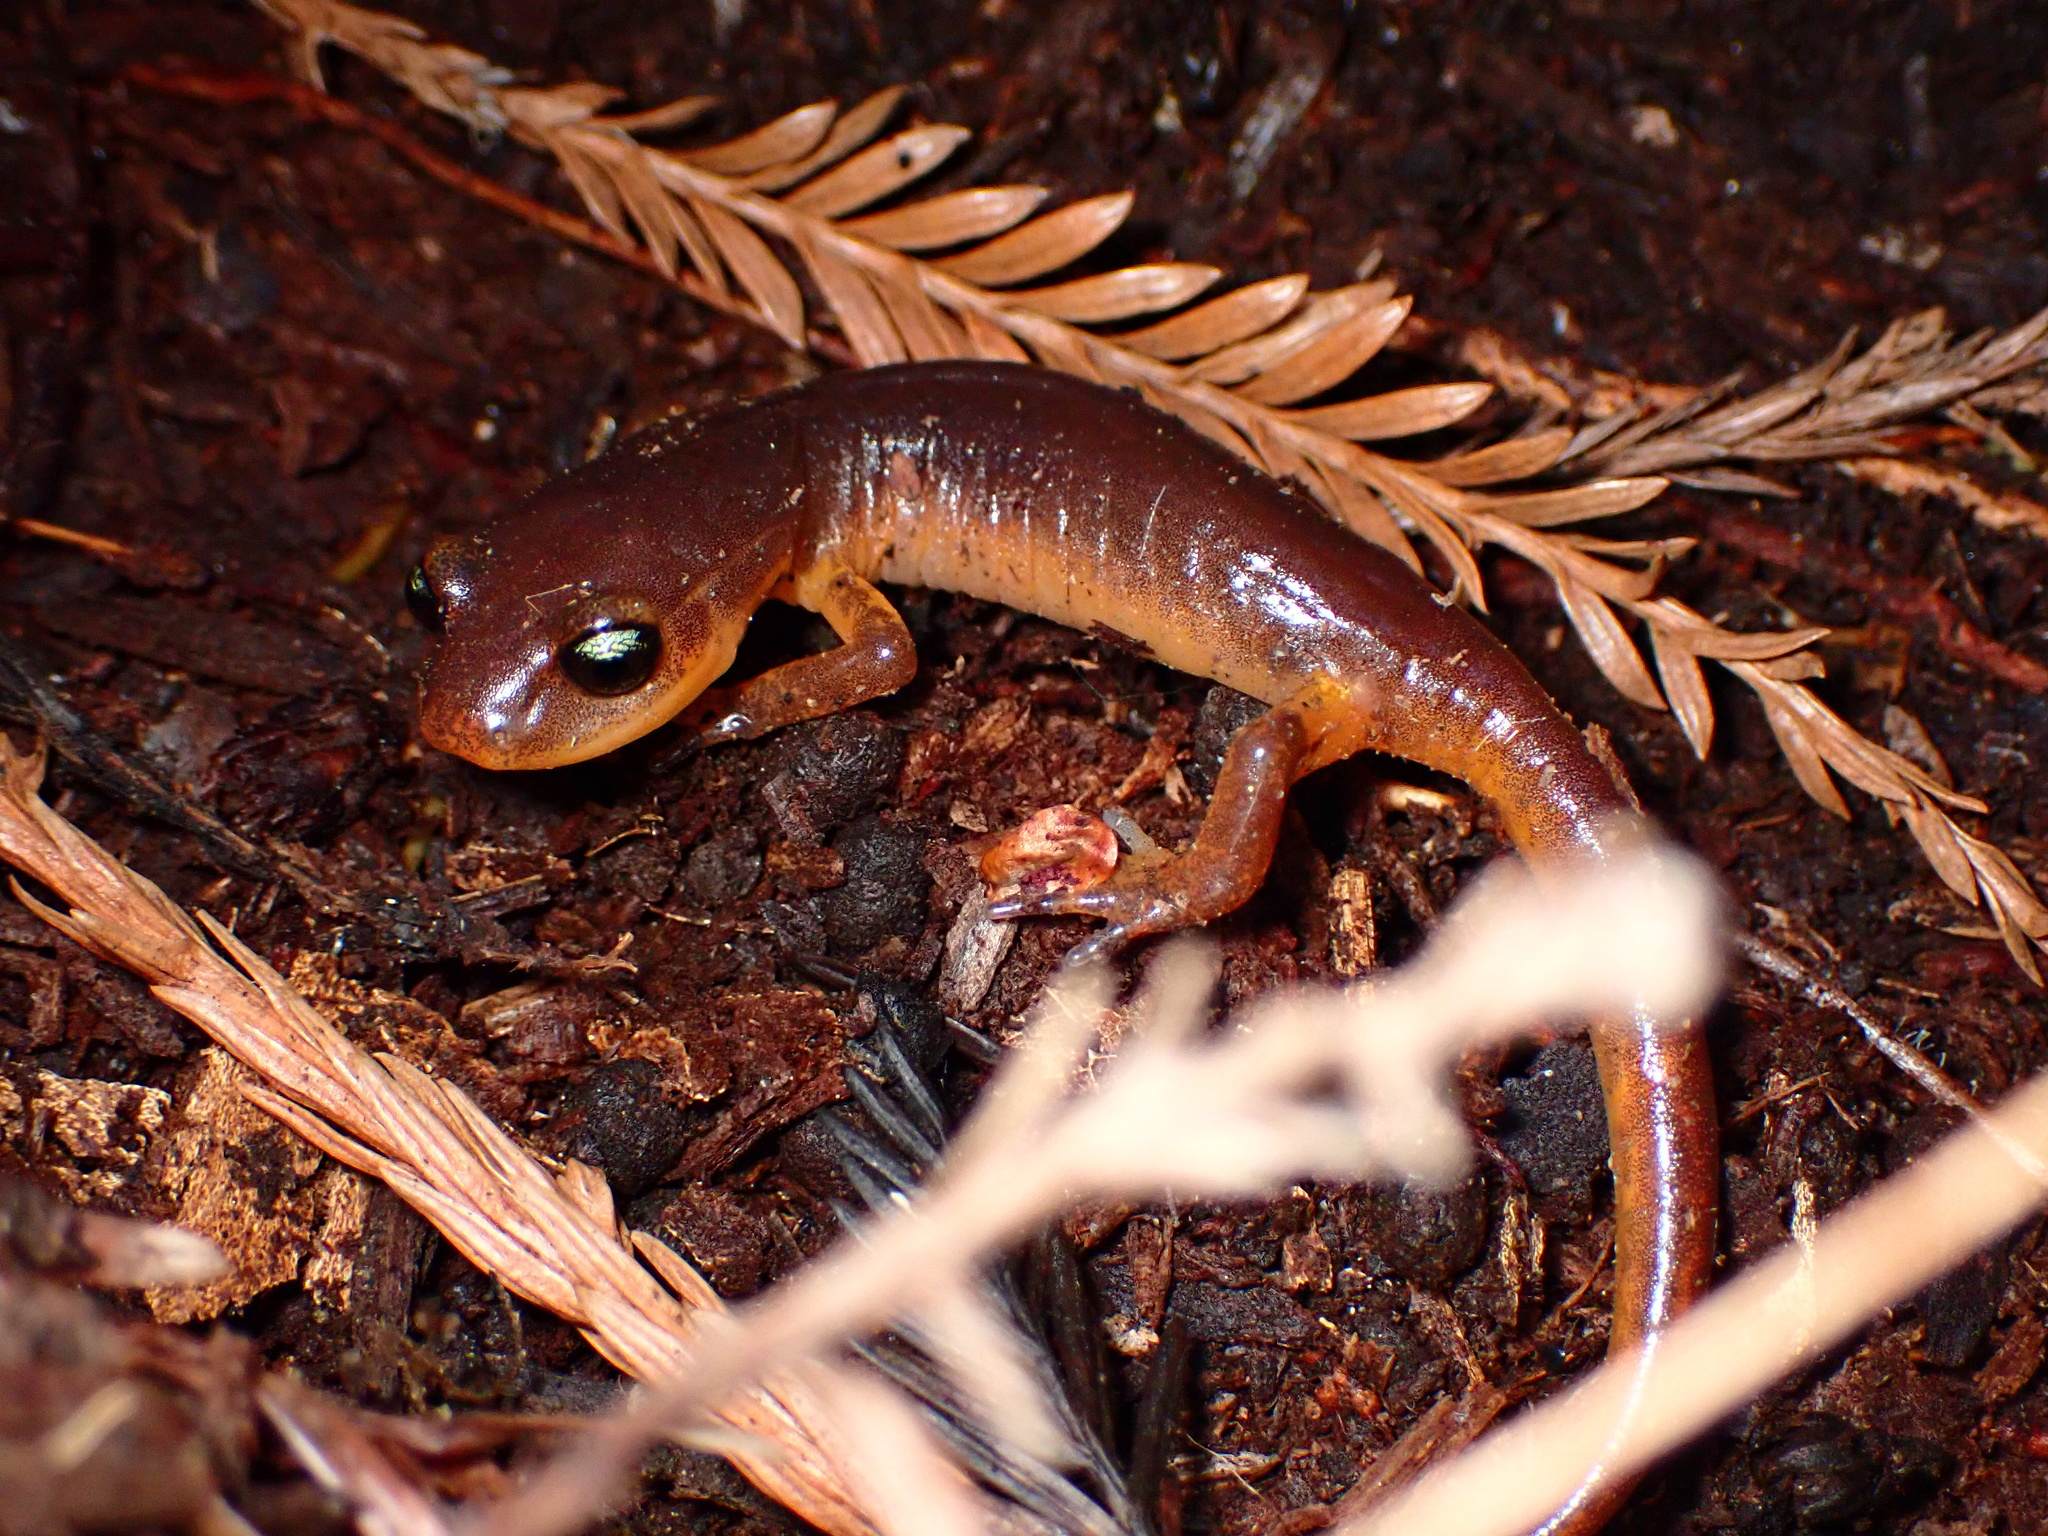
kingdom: Animalia
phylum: Chordata
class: Amphibia
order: Caudata
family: Plethodontidae
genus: Ensatina
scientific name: Ensatina eschscholtzii
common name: Ensatina
